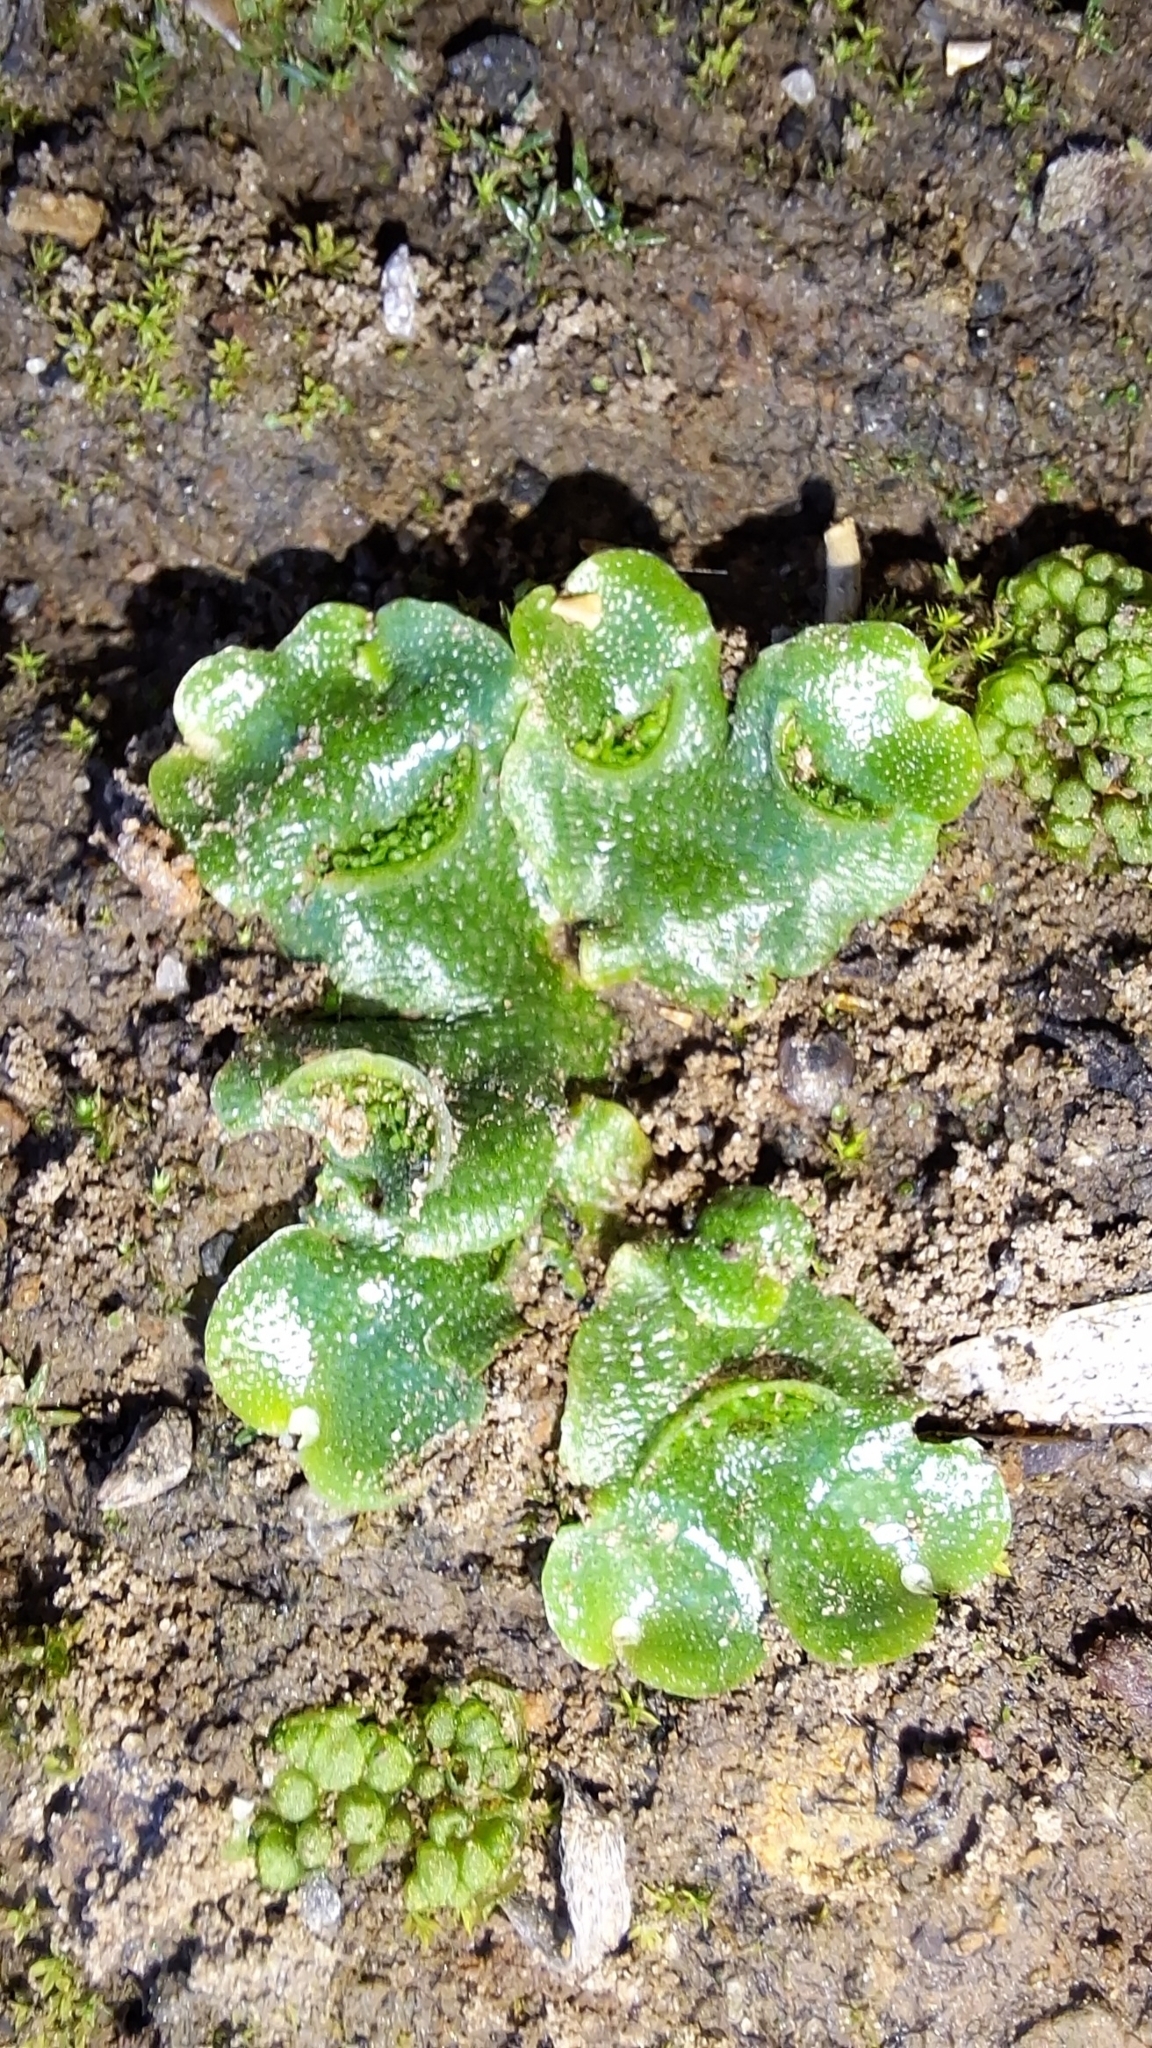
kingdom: Plantae
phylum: Marchantiophyta
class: Marchantiopsida
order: Lunulariales
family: Lunulariaceae
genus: Lunularia
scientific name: Lunularia cruciata
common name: Crescent-cup liverwort
